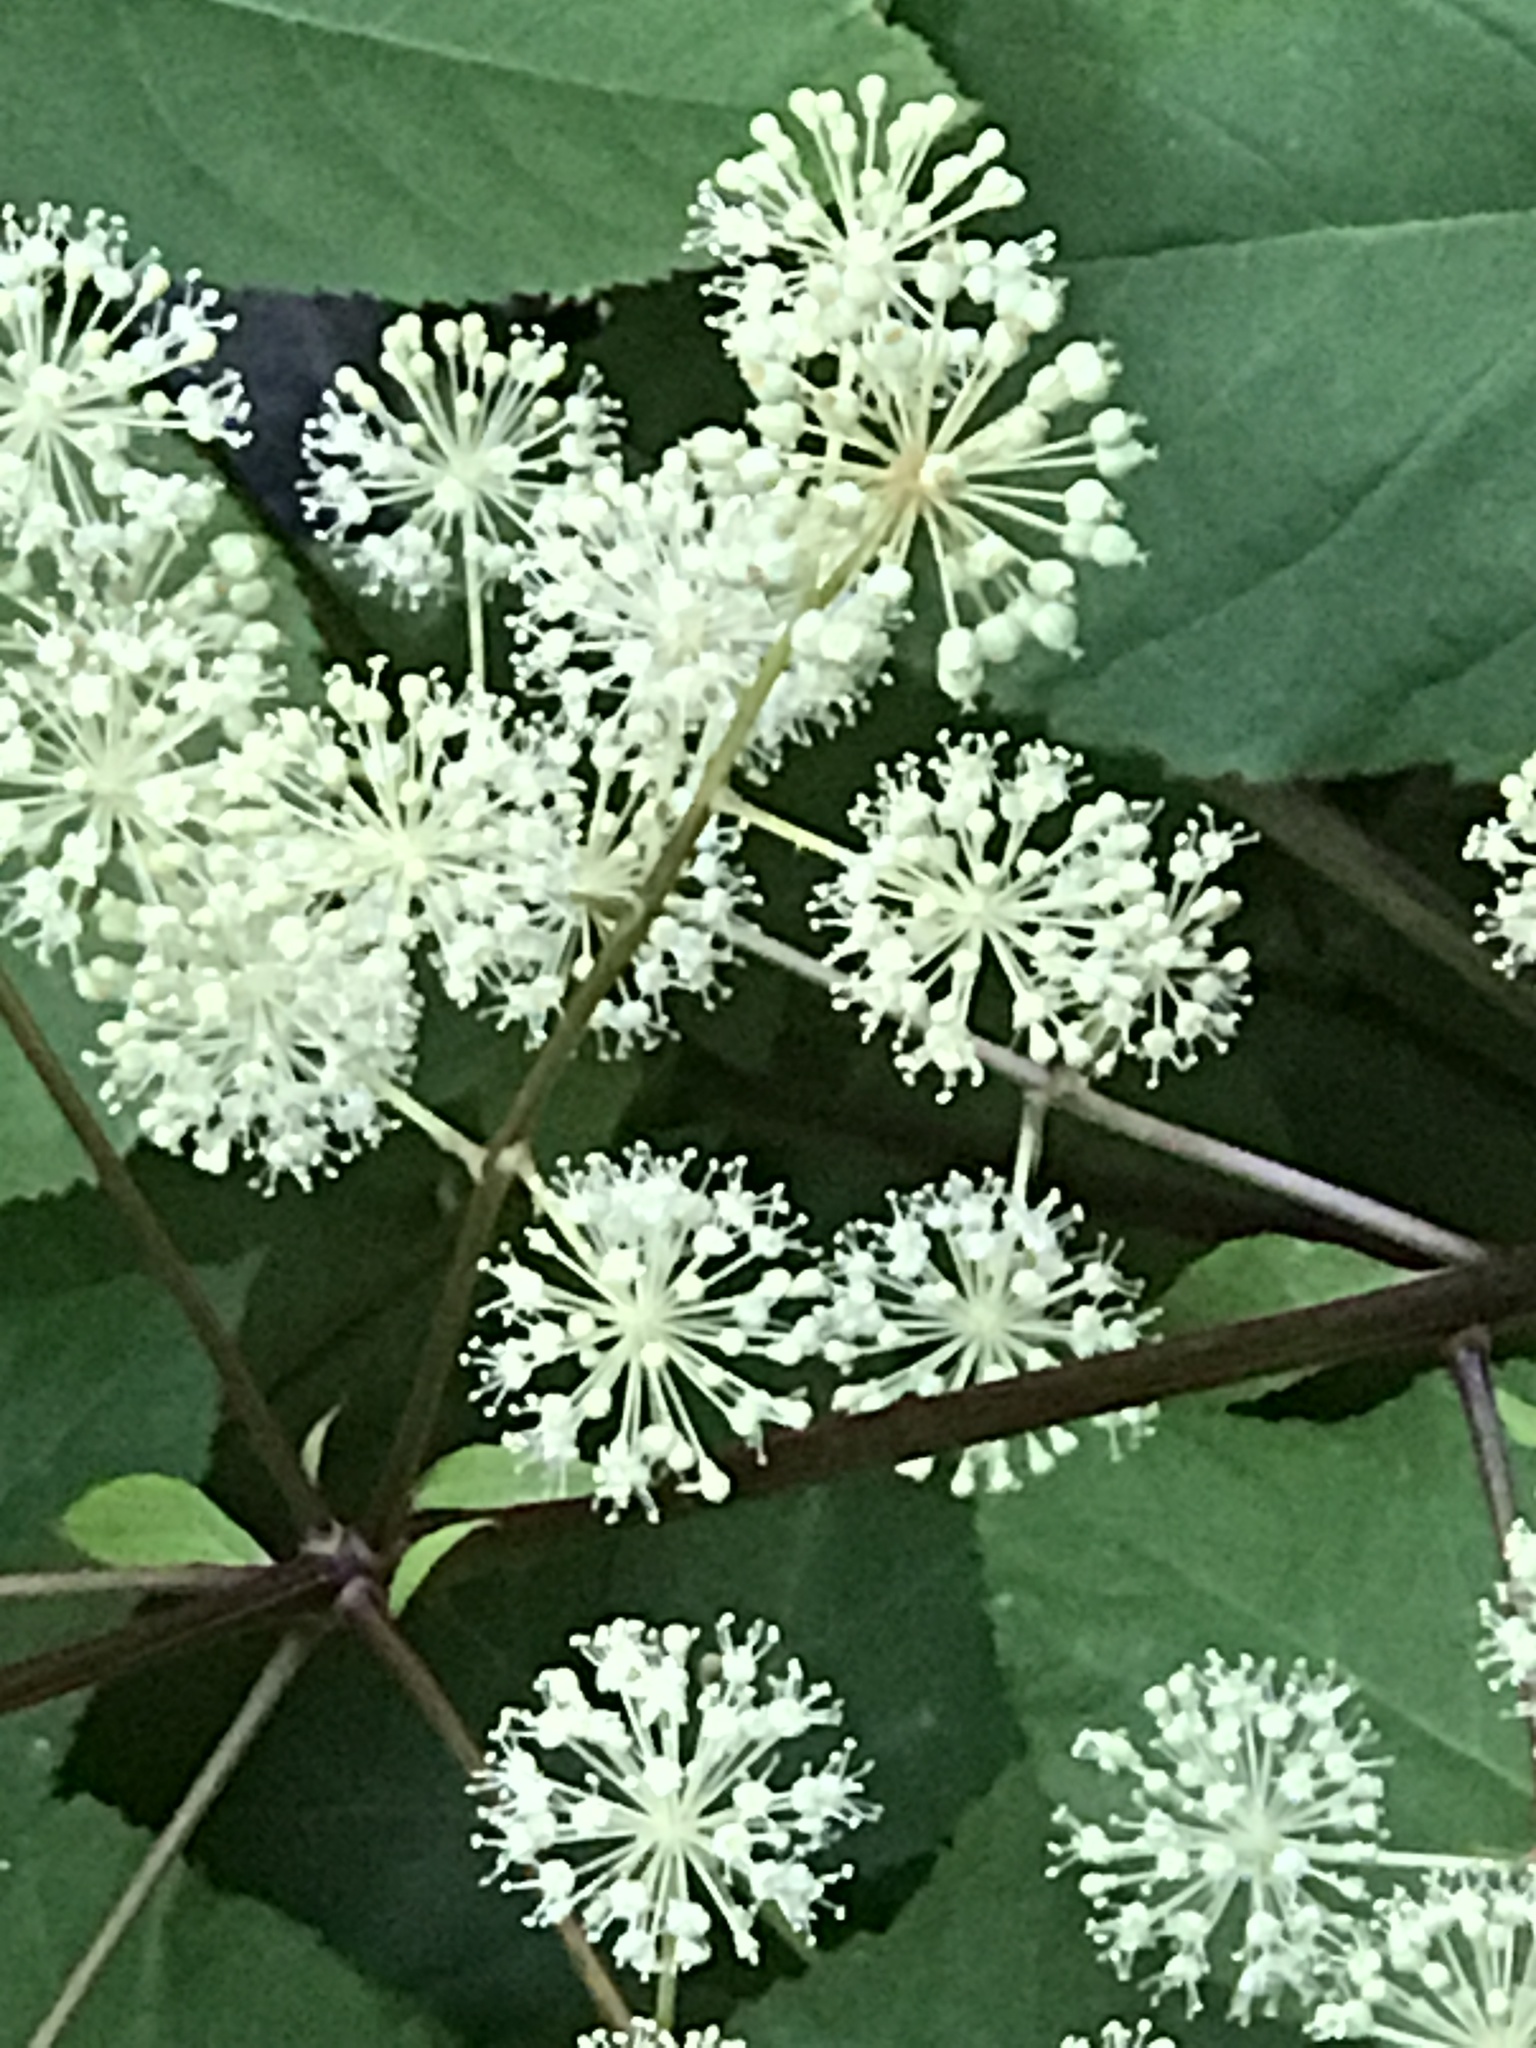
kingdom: Plantae
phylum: Tracheophyta
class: Magnoliopsida
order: Apiales
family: Araliaceae
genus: Aralia
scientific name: Aralia californica
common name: California-ginseng
